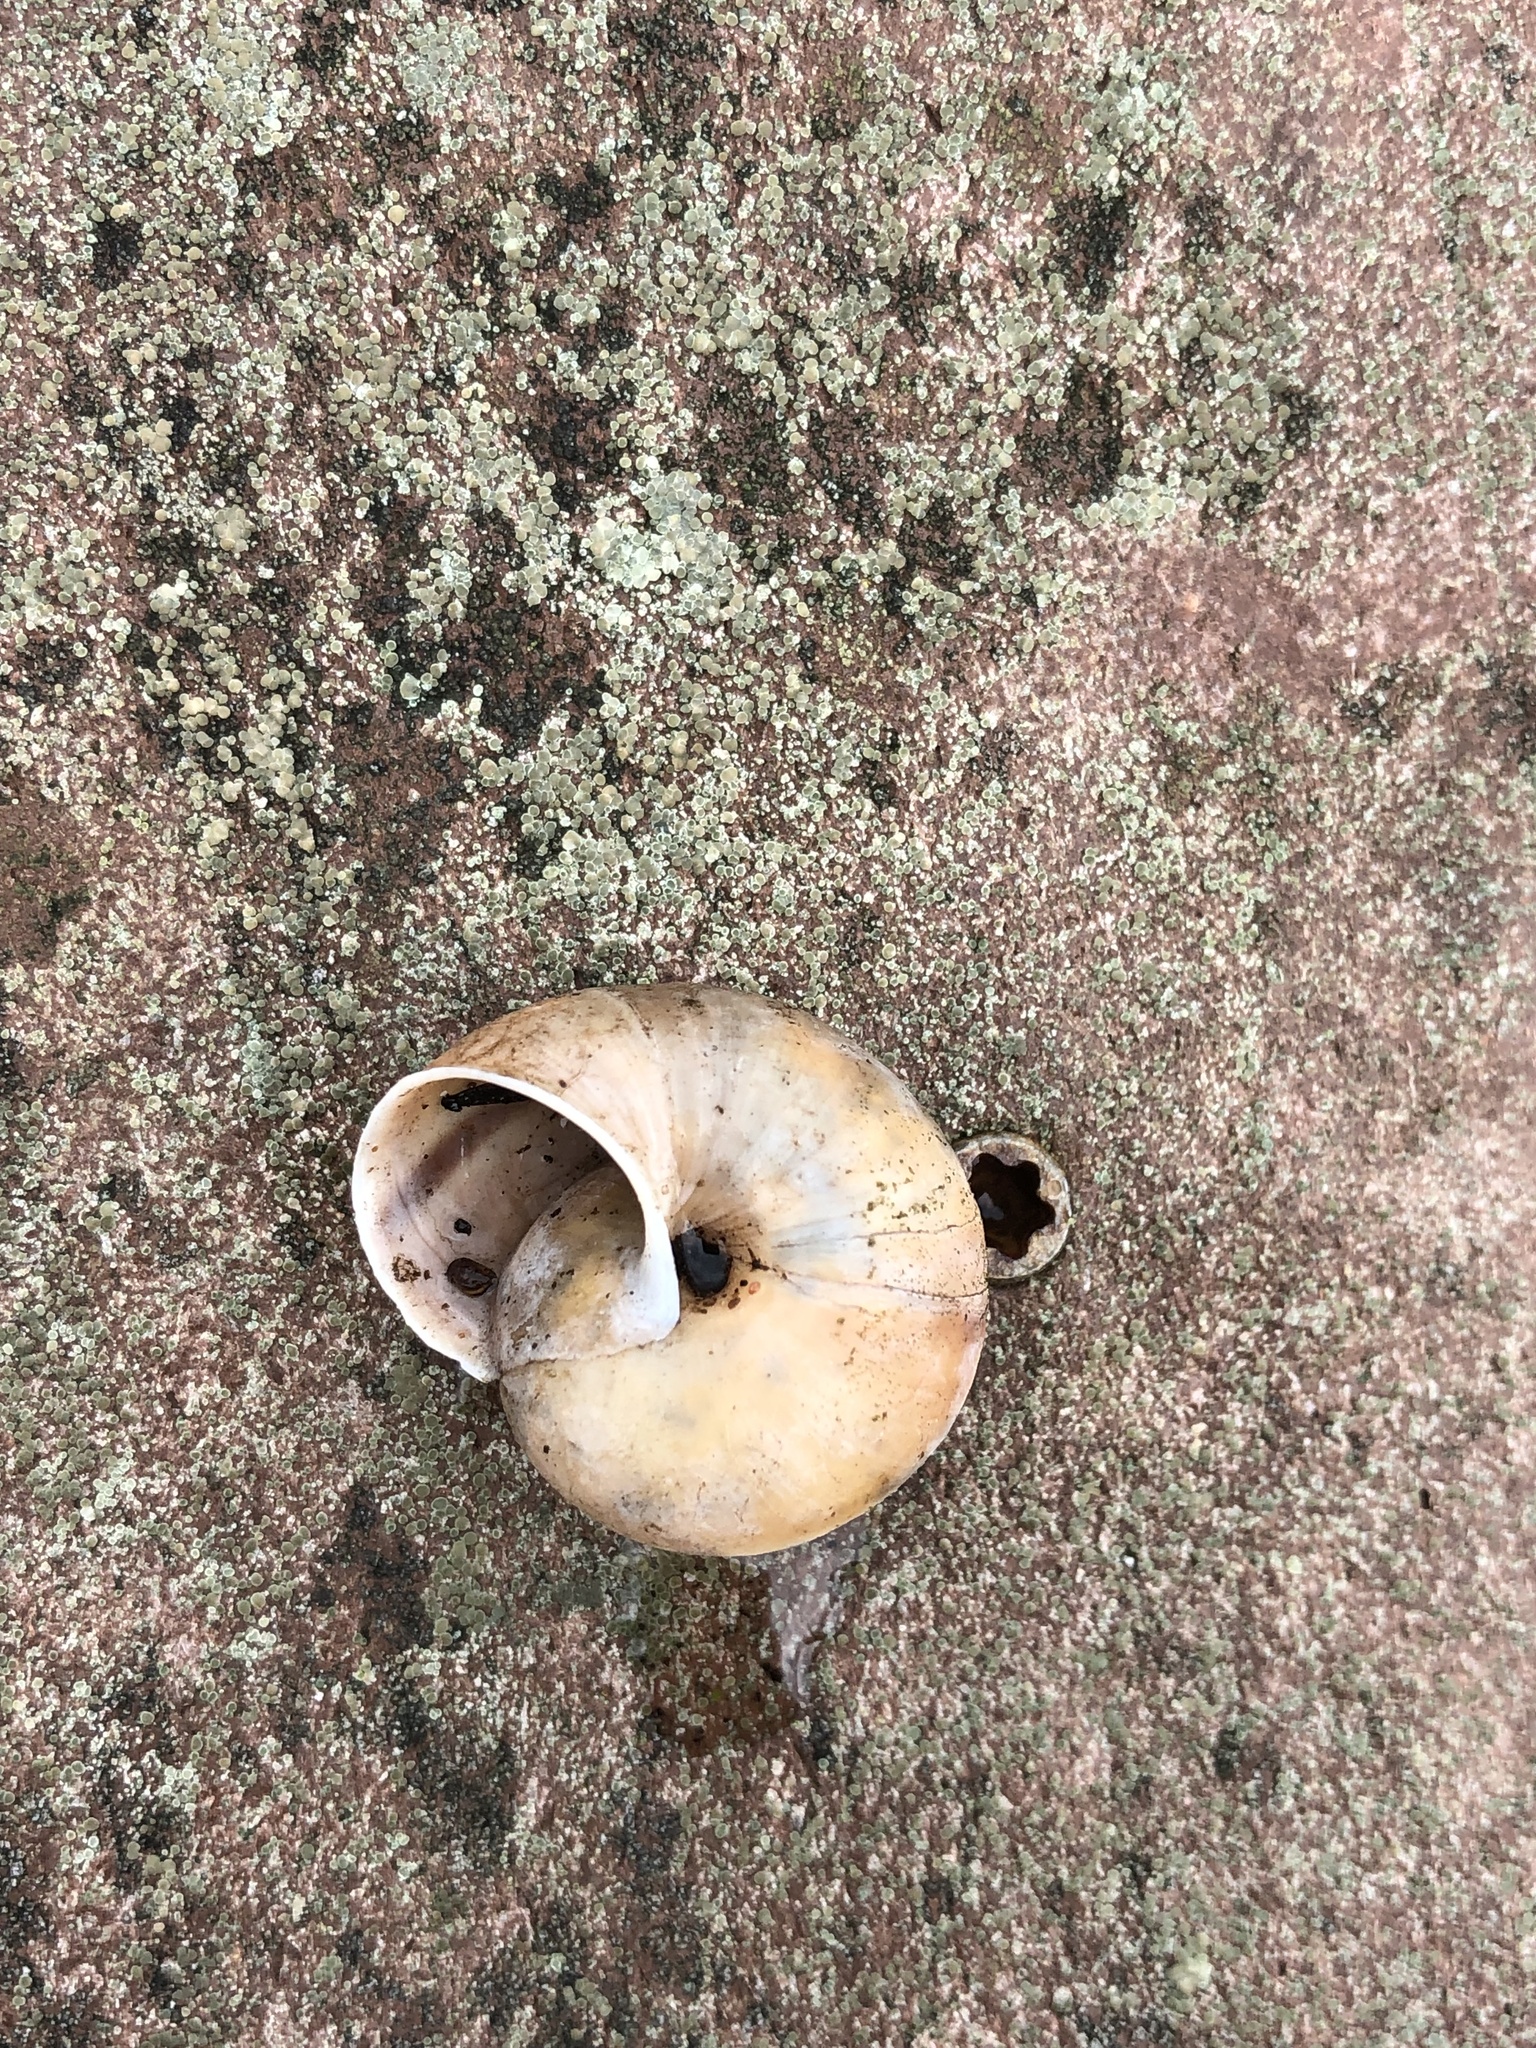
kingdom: Animalia
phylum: Mollusca
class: Gastropoda
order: Stylommatophora
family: Xanthonychidae
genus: Helminthoglypta
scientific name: Helminthoglypta umbilicata
